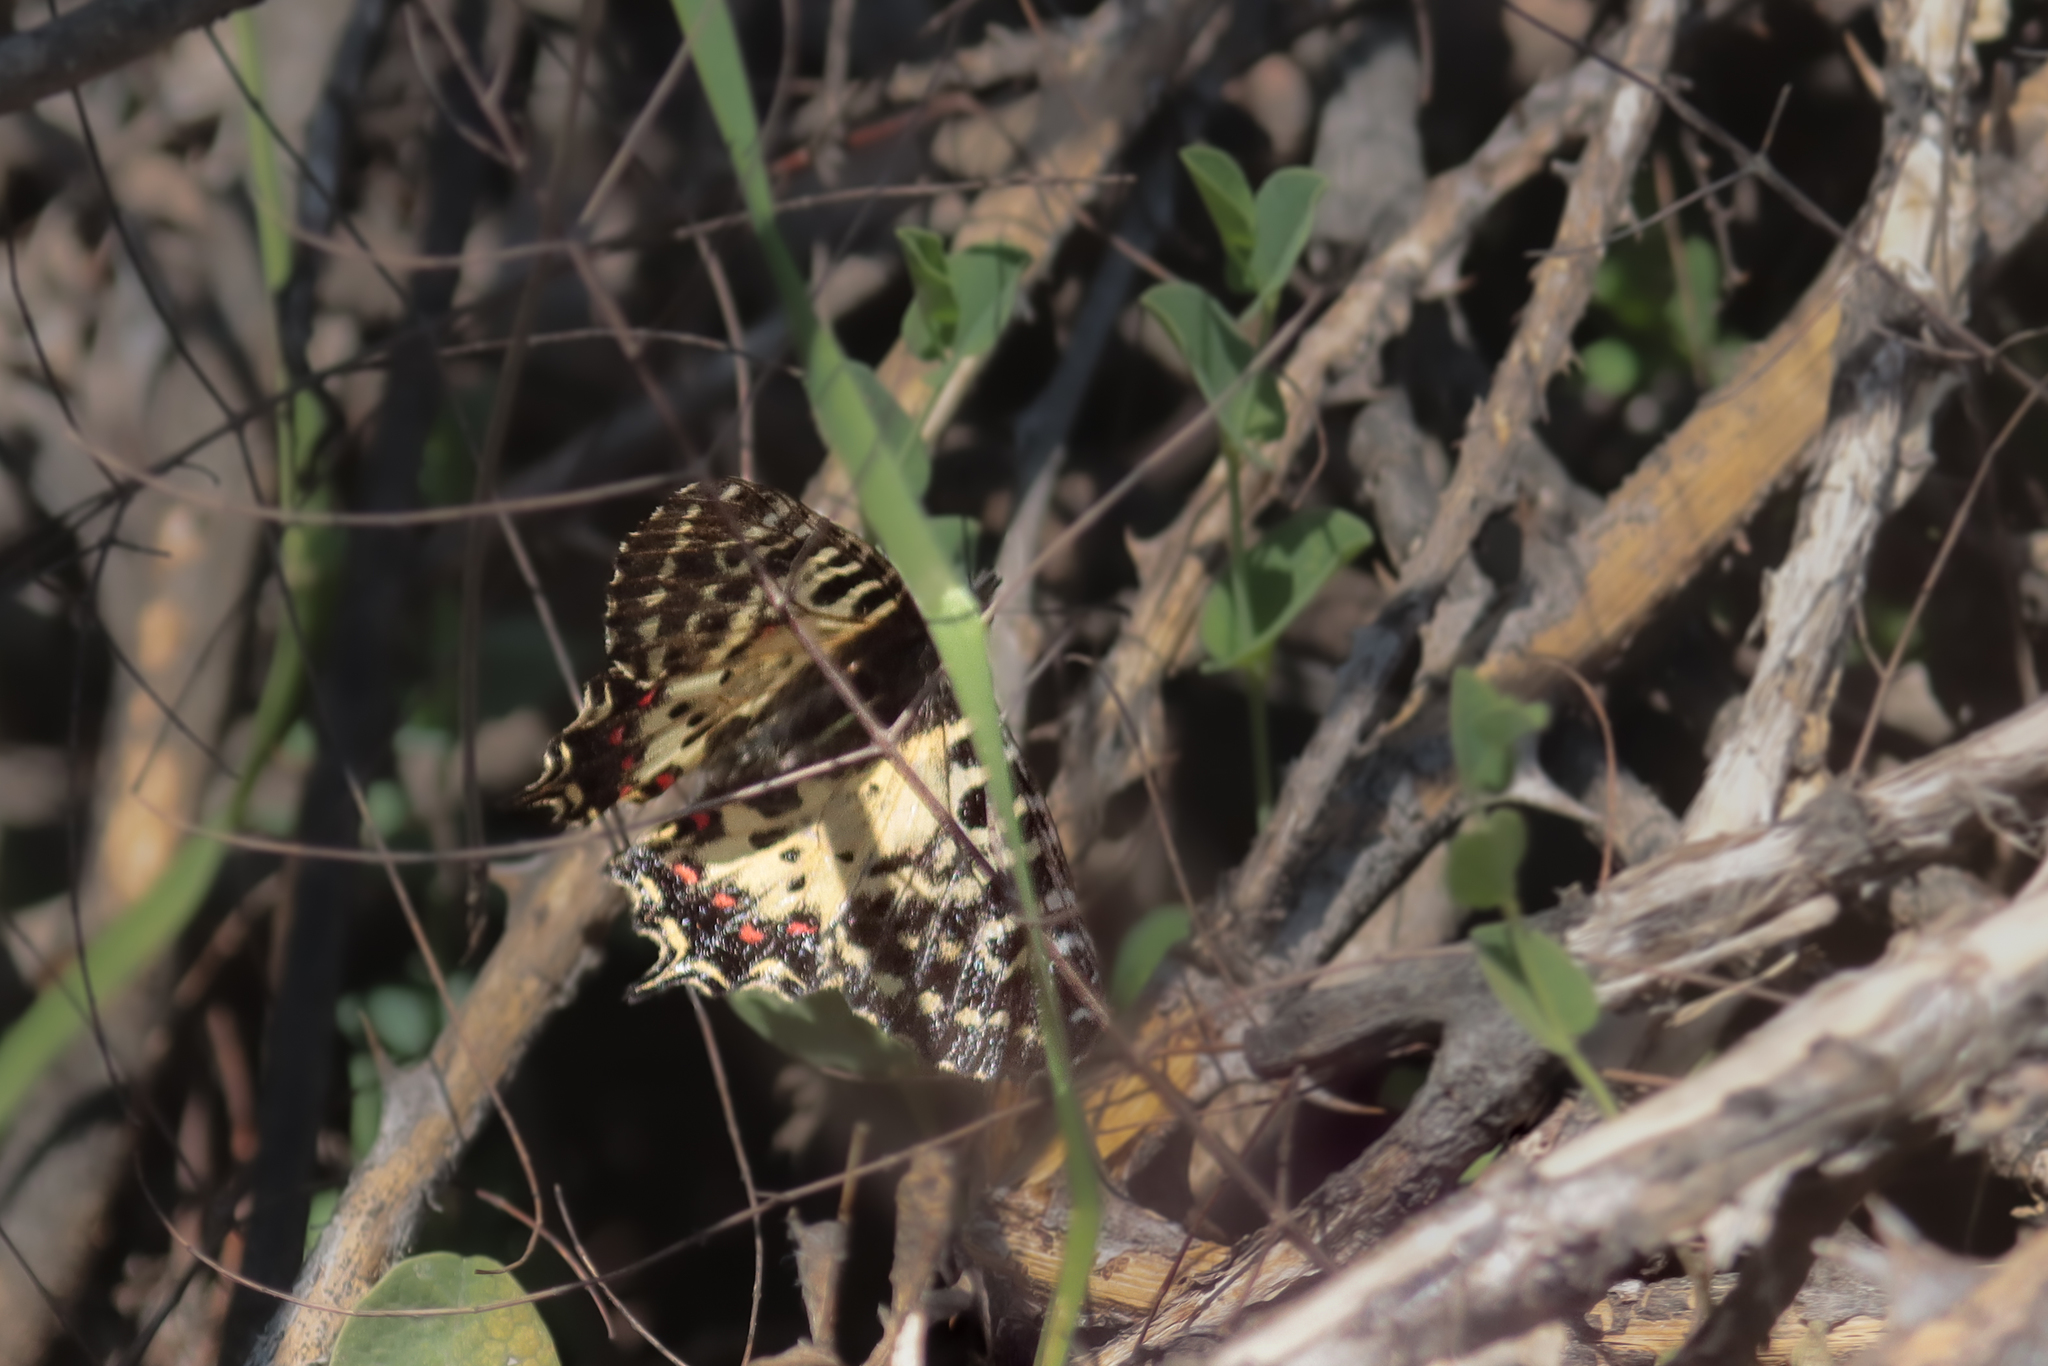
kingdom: Animalia
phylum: Arthropoda
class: Insecta
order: Lepidoptera
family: Papilionidae
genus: Zerynthia
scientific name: Zerynthia cerisy
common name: Eastern festoon
